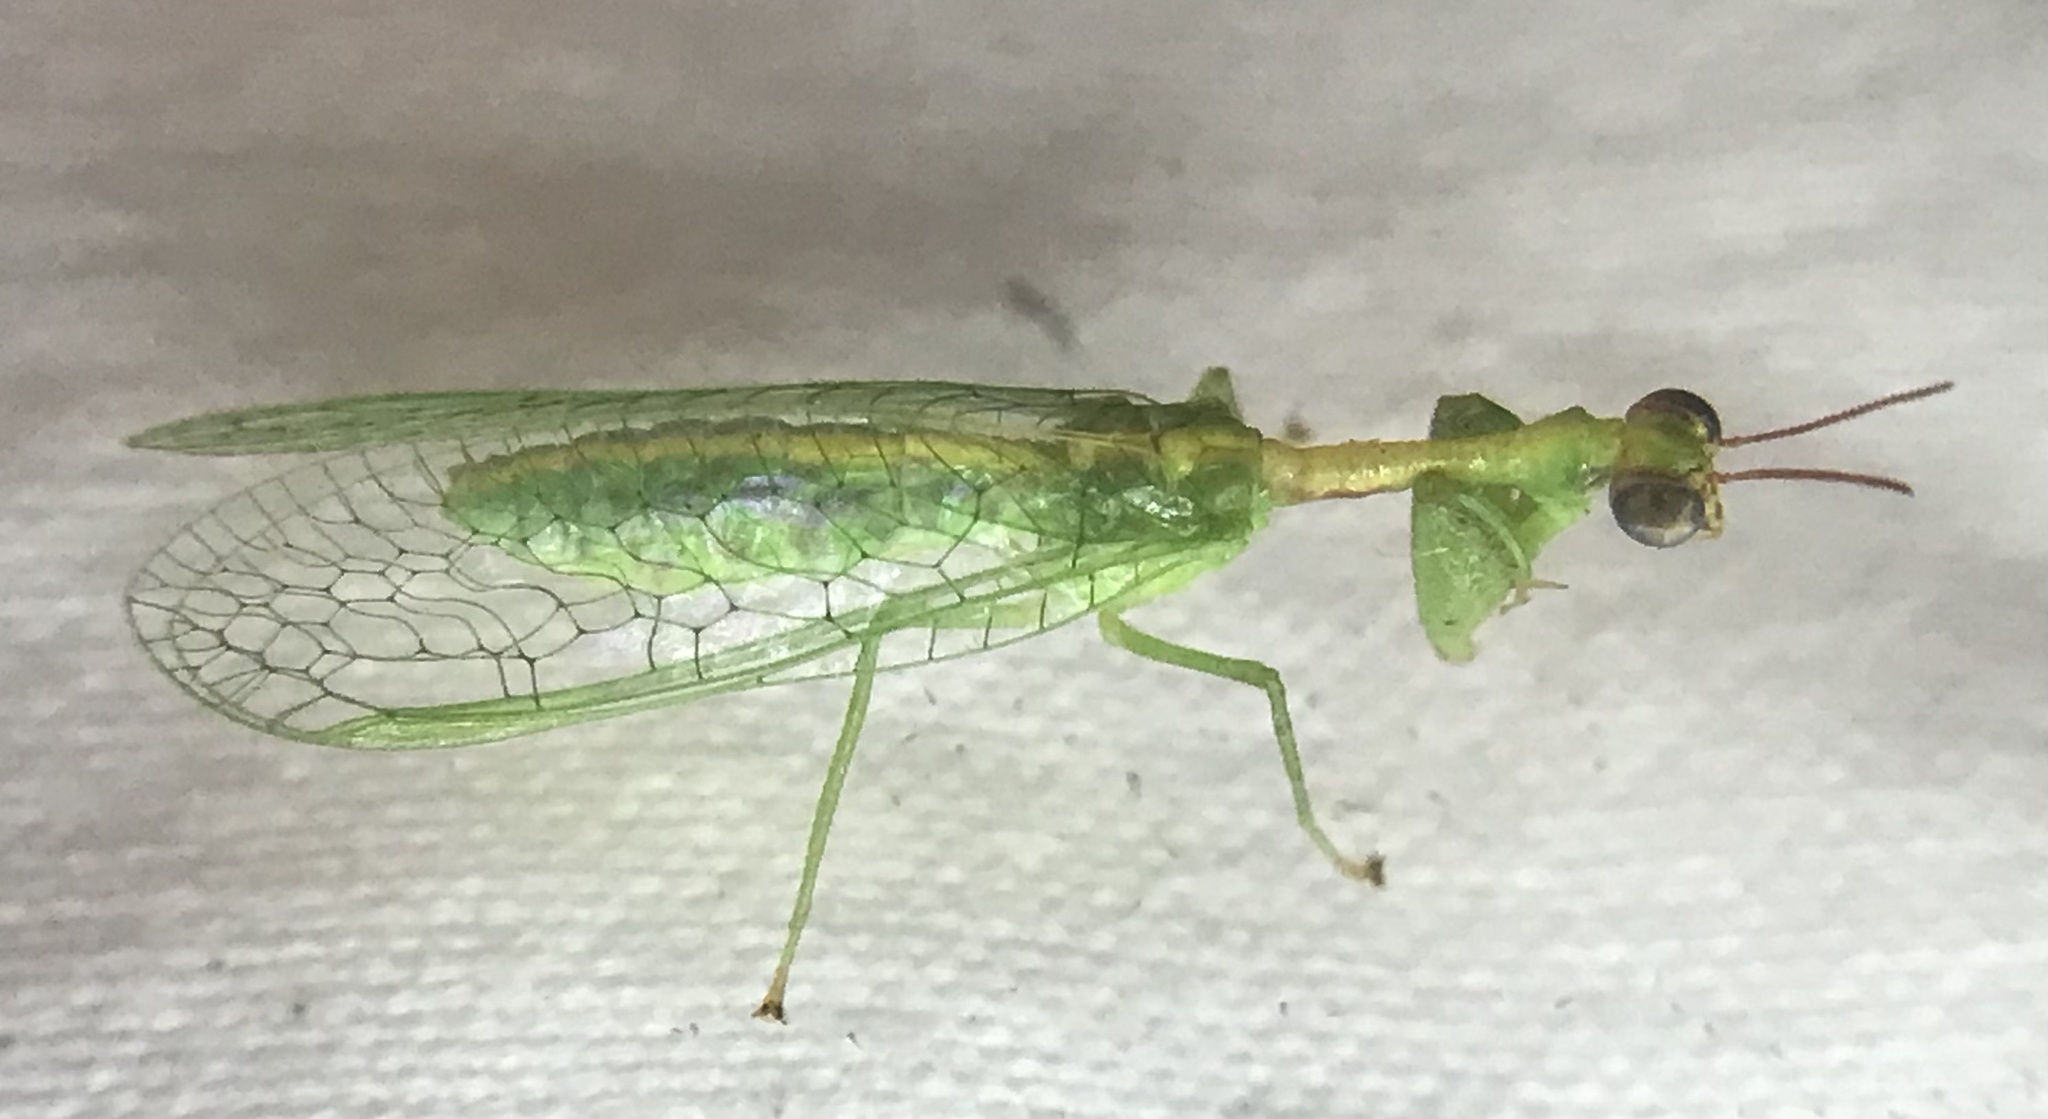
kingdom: Animalia
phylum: Arthropoda
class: Insecta
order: Neuroptera
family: Mantispidae
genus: Zeugomantispa
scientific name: Zeugomantispa minuta
